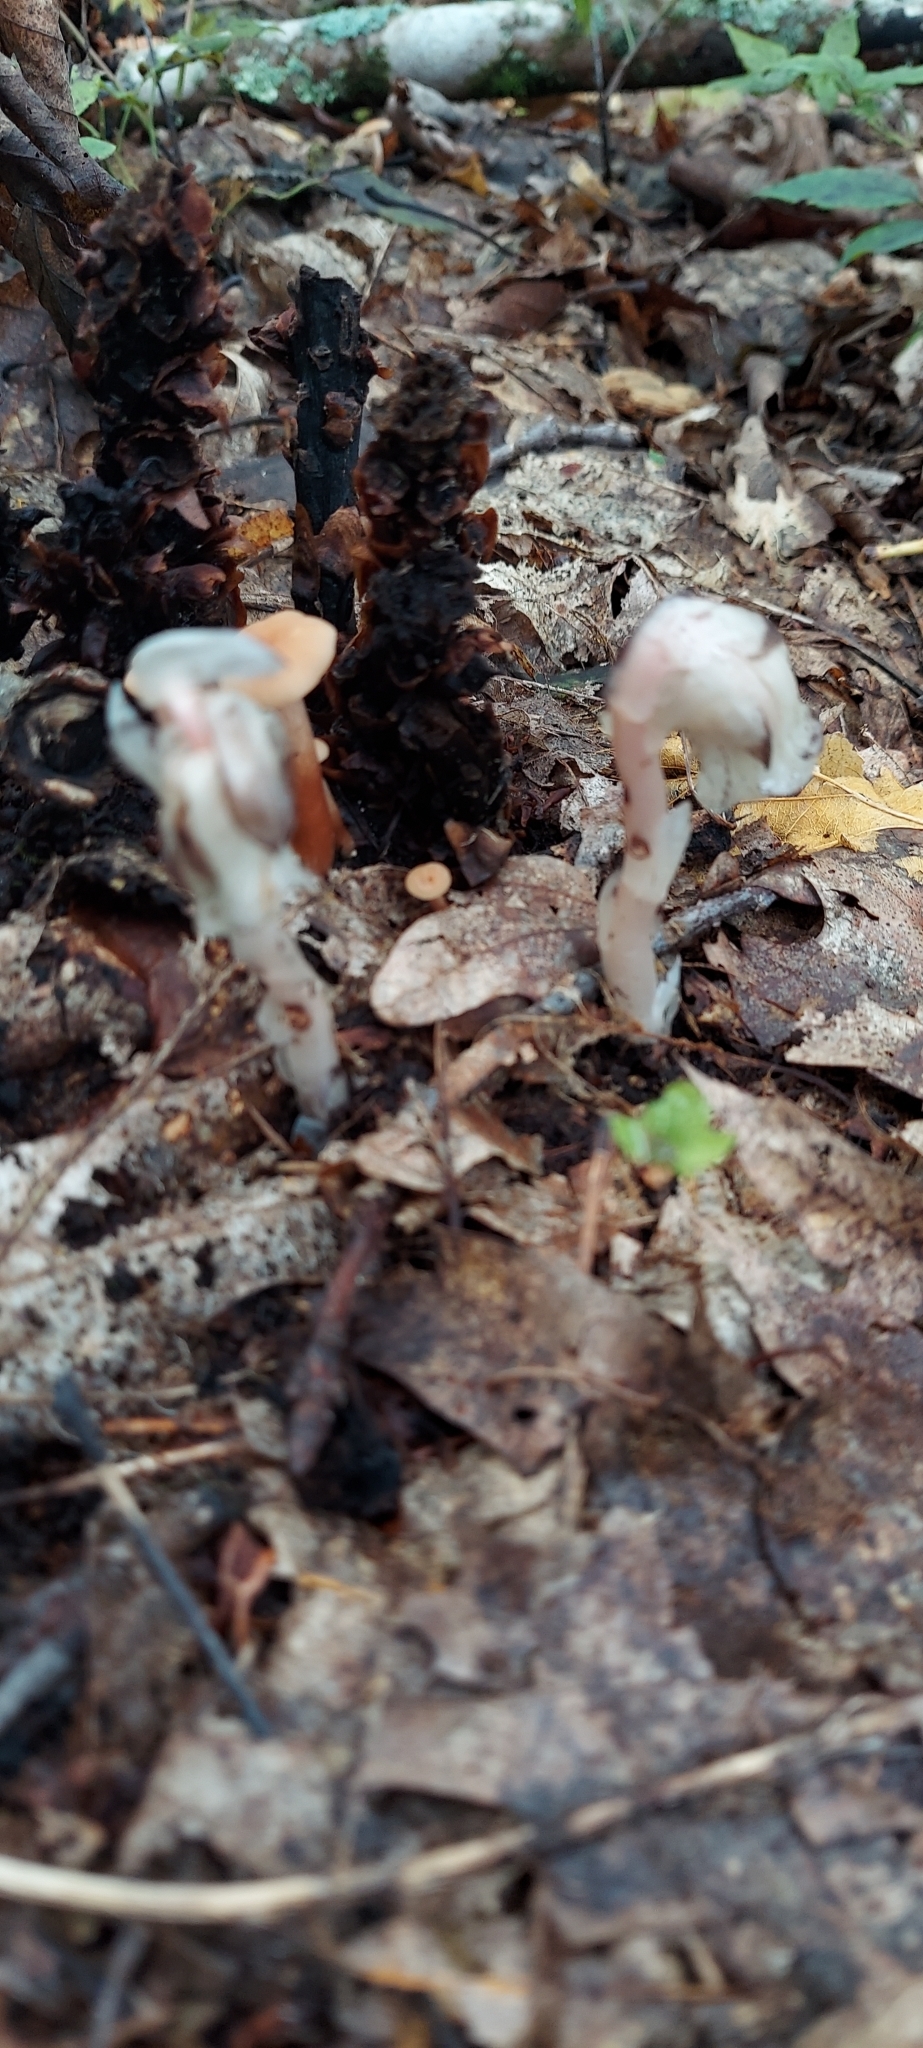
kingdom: Plantae
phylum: Tracheophyta
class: Magnoliopsida
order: Ericales
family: Ericaceae
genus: Monotropa
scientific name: Monotropa uniflora
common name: Convulsion root
